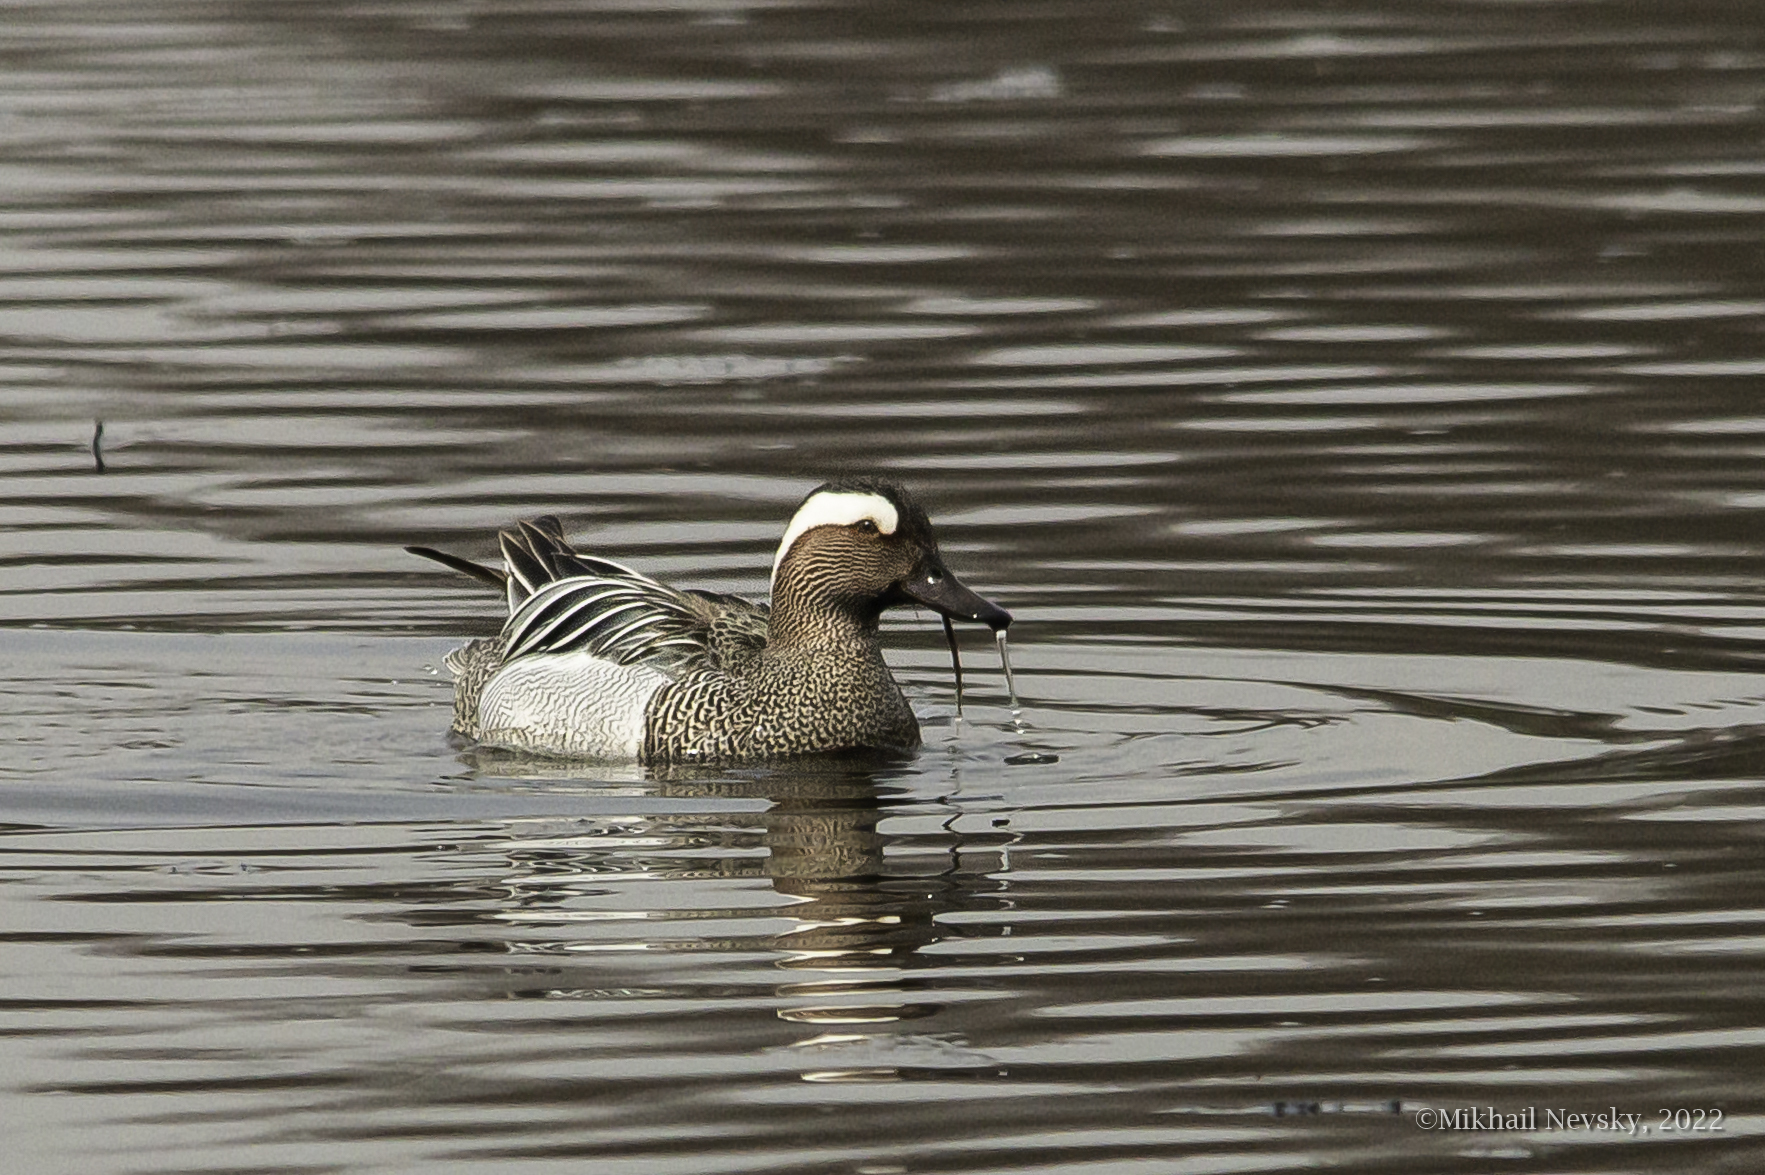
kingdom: Animalia
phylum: Chordata
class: Aves
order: Anseriformes
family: Anatidae
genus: Spatula
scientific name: Spatula querquedula
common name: Garganey
